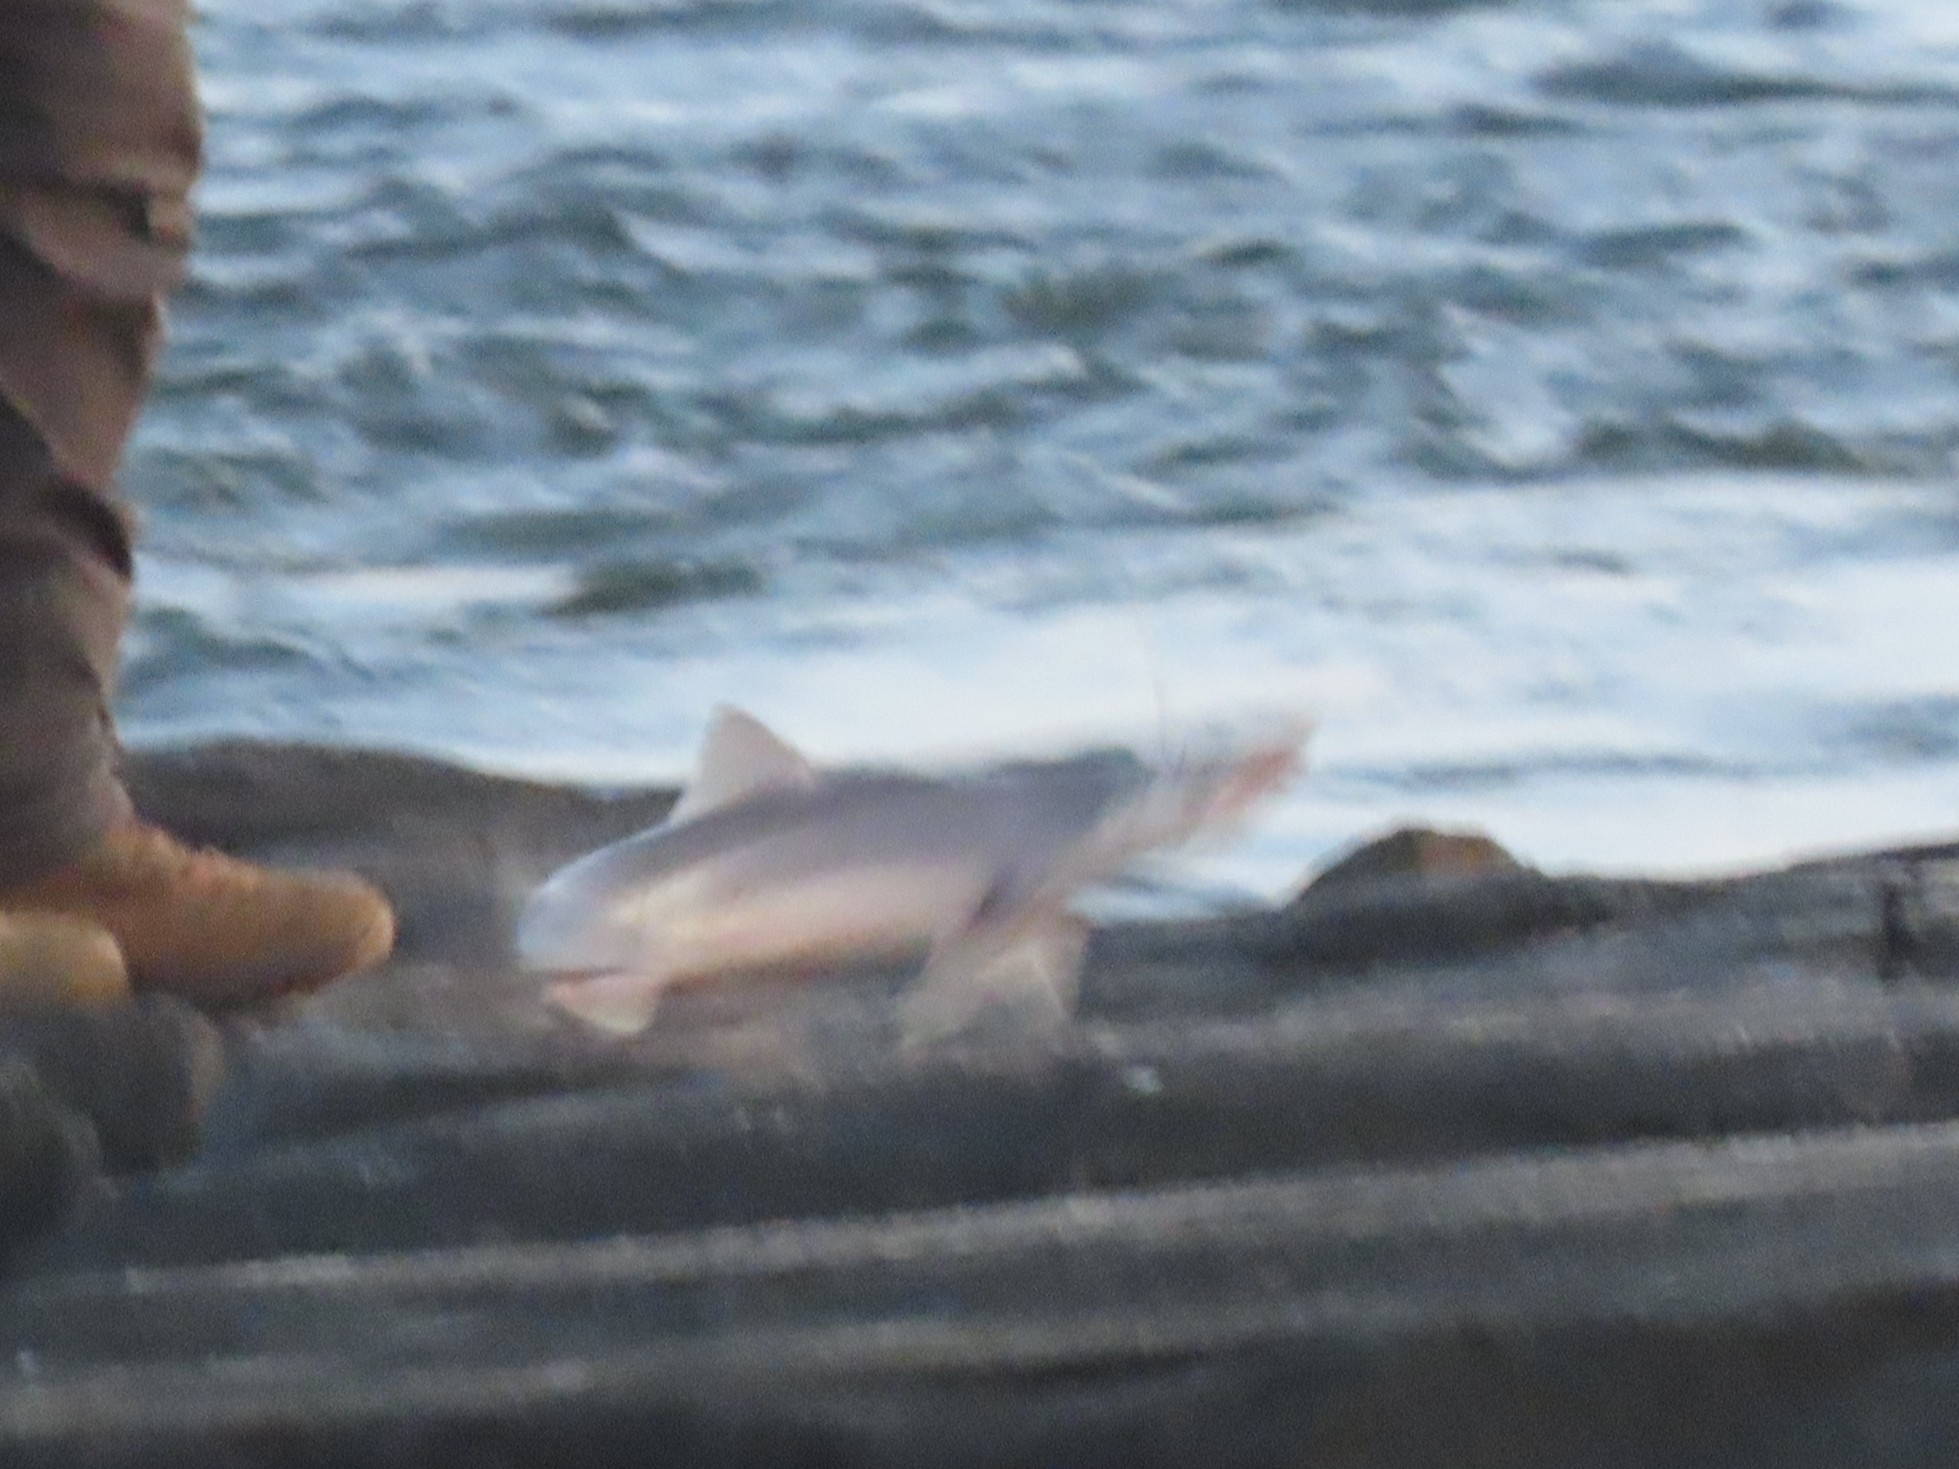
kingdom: Animalia
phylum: Chordata
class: Elasmobranchii
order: Squaliformes
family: Squalidae
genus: Squalus
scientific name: Squalus acanthias
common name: Spurdog
